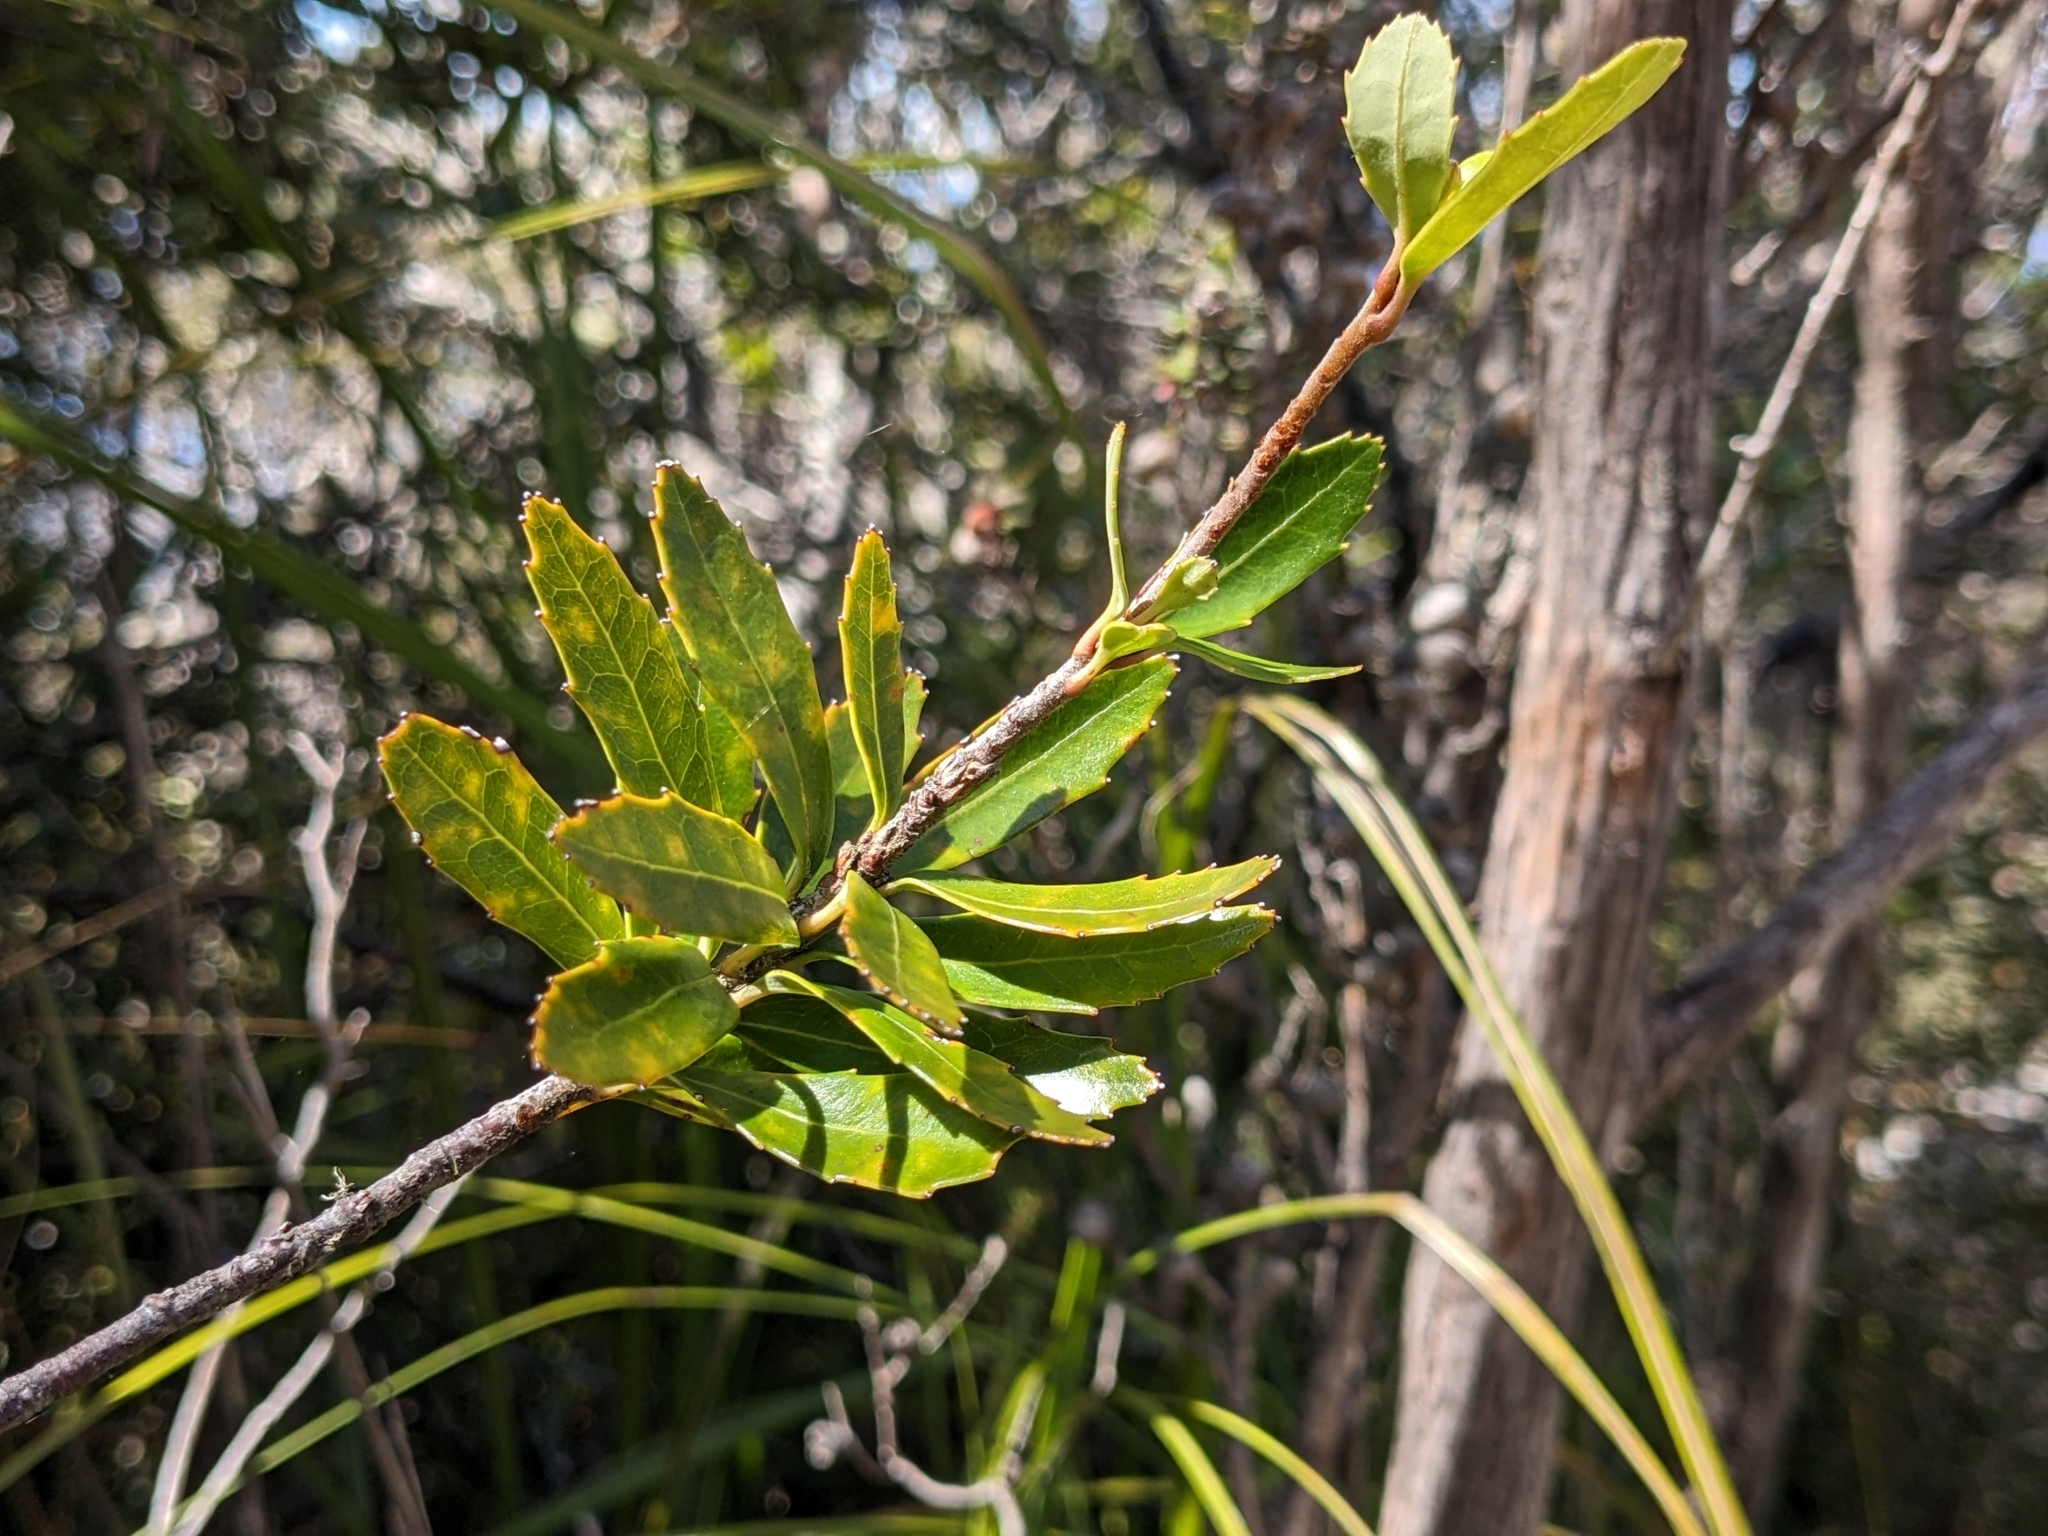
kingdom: Plantae
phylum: Tracheophyta
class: Magnoliopsida
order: Proteales
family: Proteaceae
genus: Cenarrhenes
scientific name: Cenarrhenes nitida
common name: Native plum
